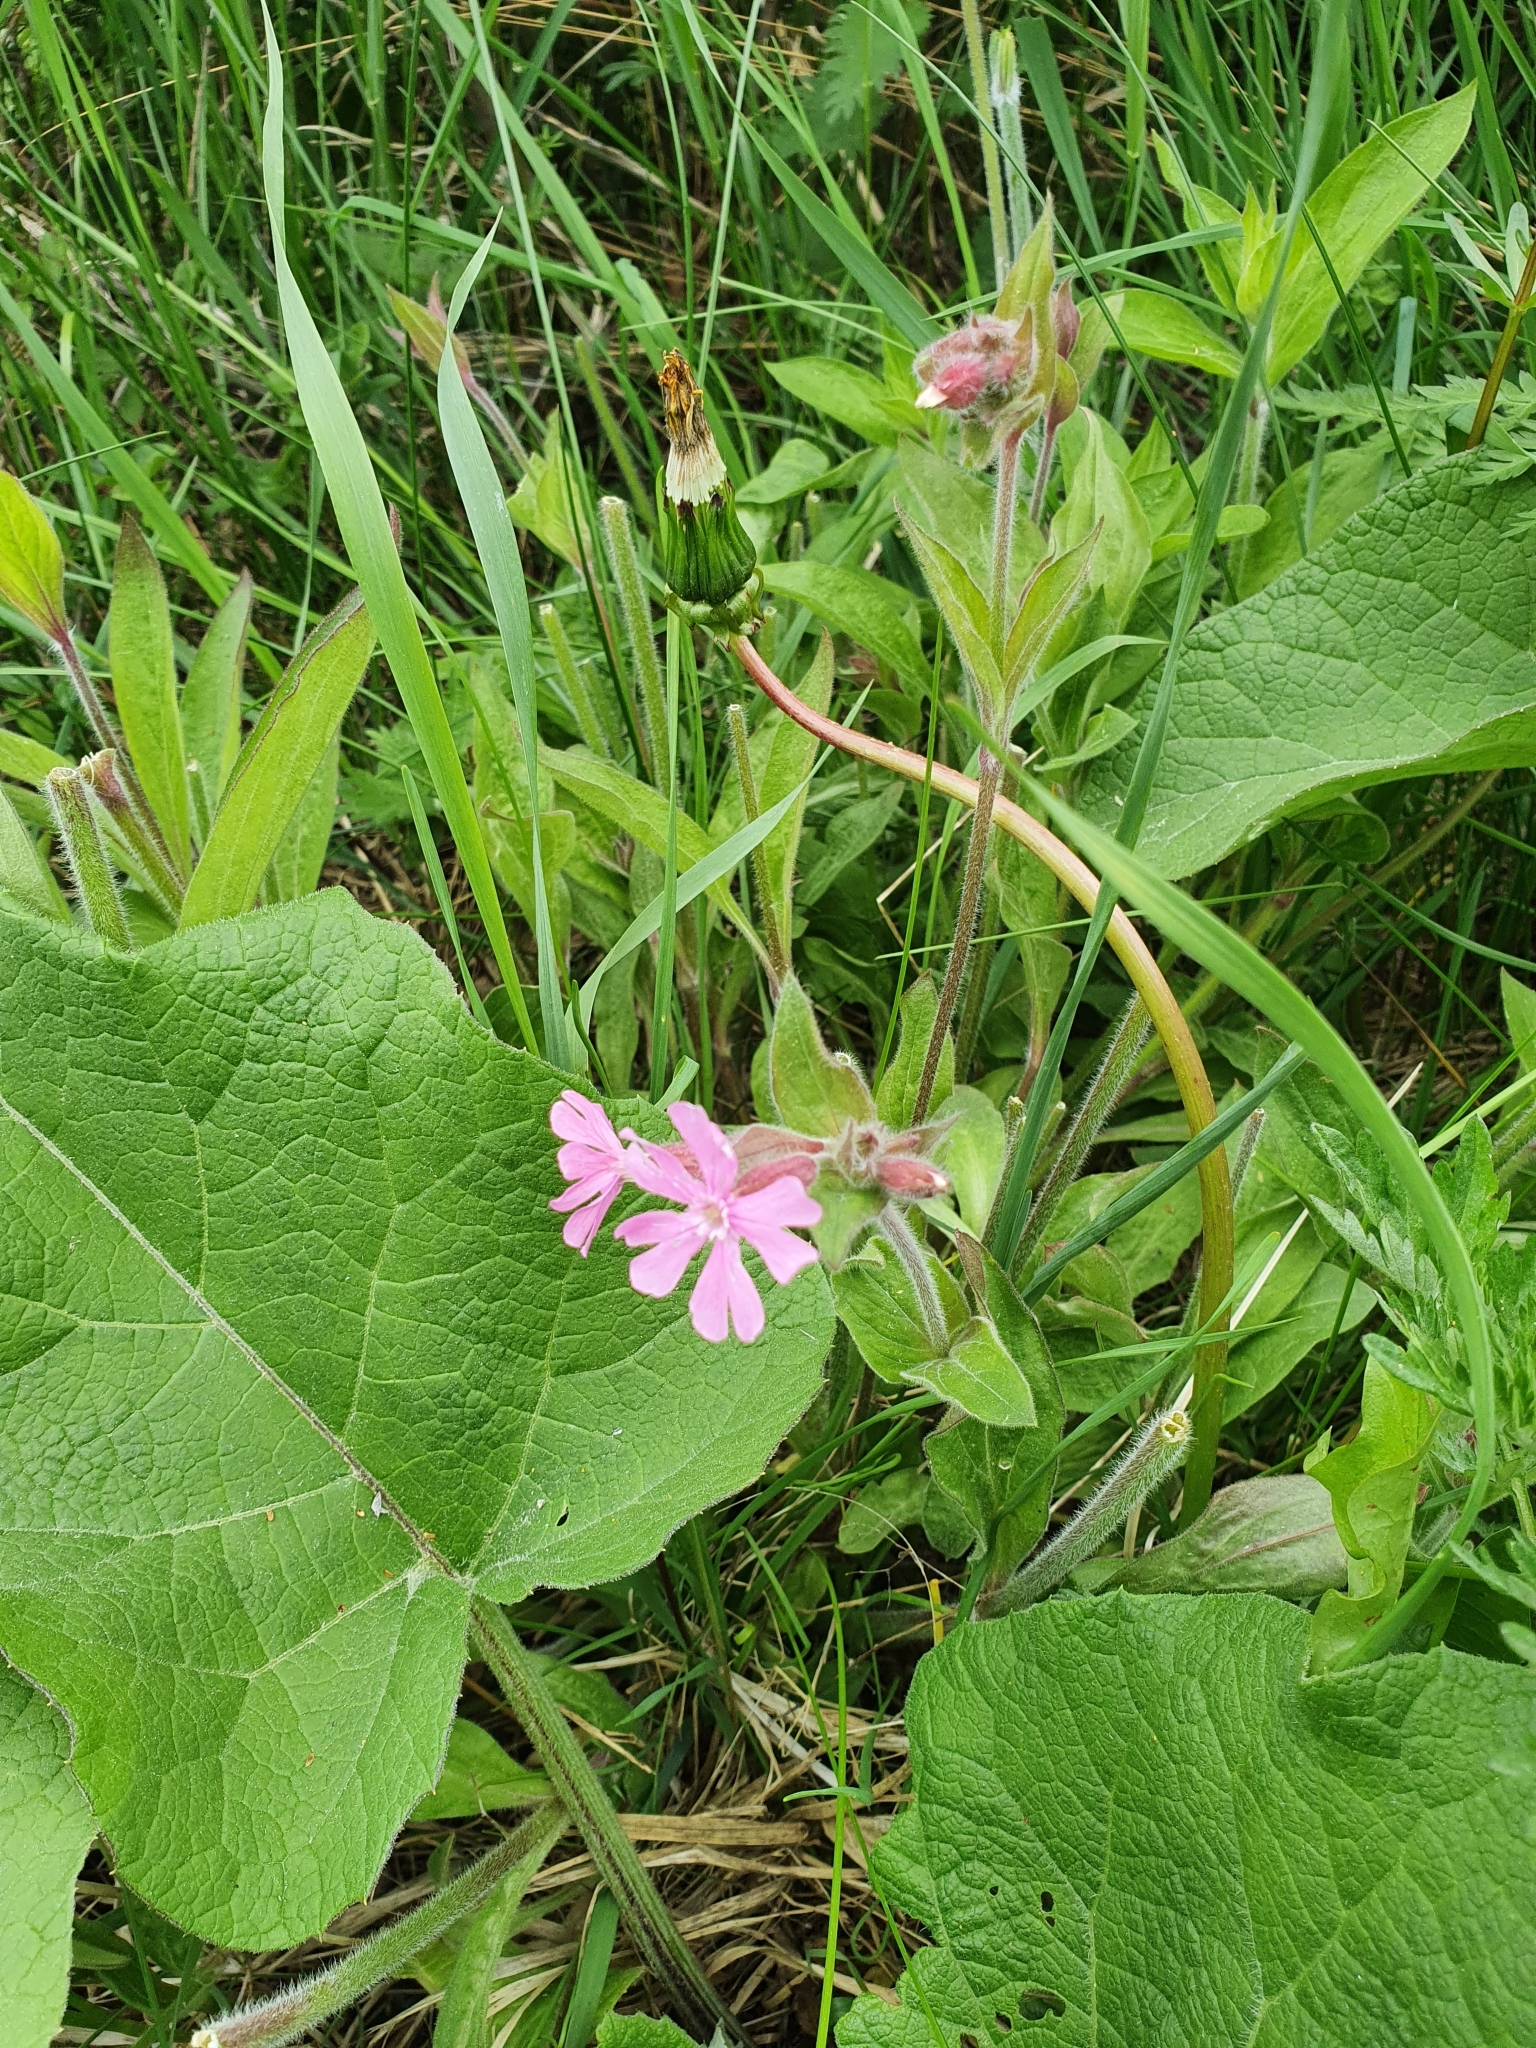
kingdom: Plantae
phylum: Tracheophyta
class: Magnoliopsida
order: Caryophyllales
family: Caryophyllaceae
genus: Silene
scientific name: Silene dioica
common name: Red campion
